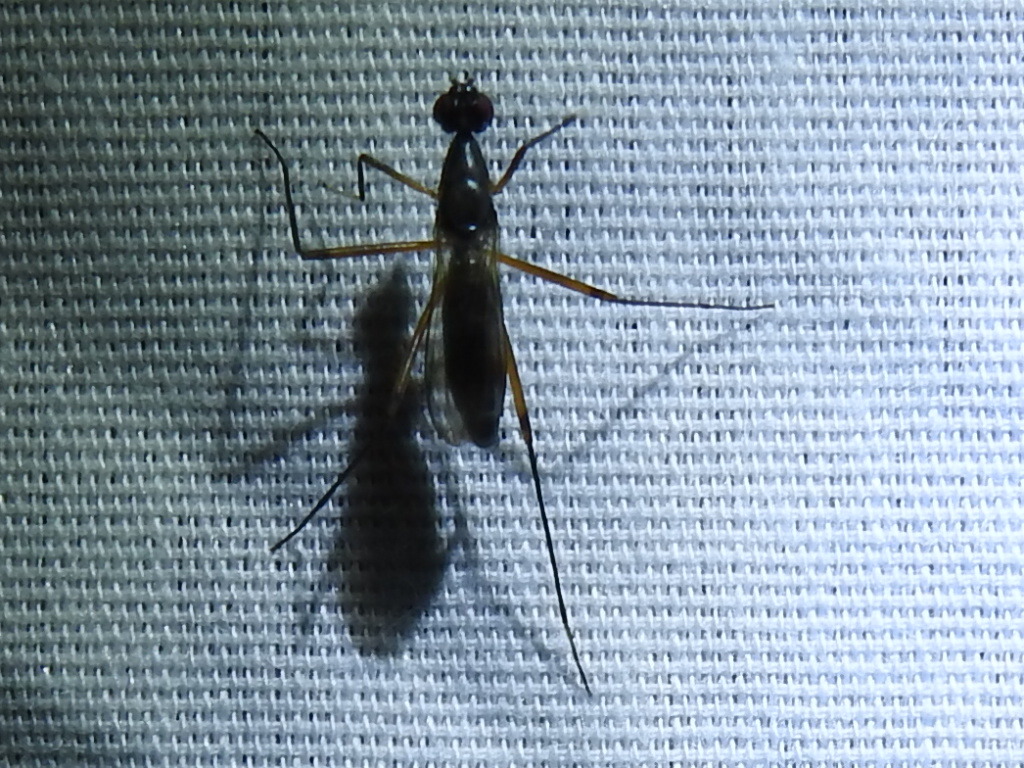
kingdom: Animalia
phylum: Arthropoda
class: Insecta
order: Diptera
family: Micropezidae
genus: Rainieria
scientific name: Rainieria antennaepes
